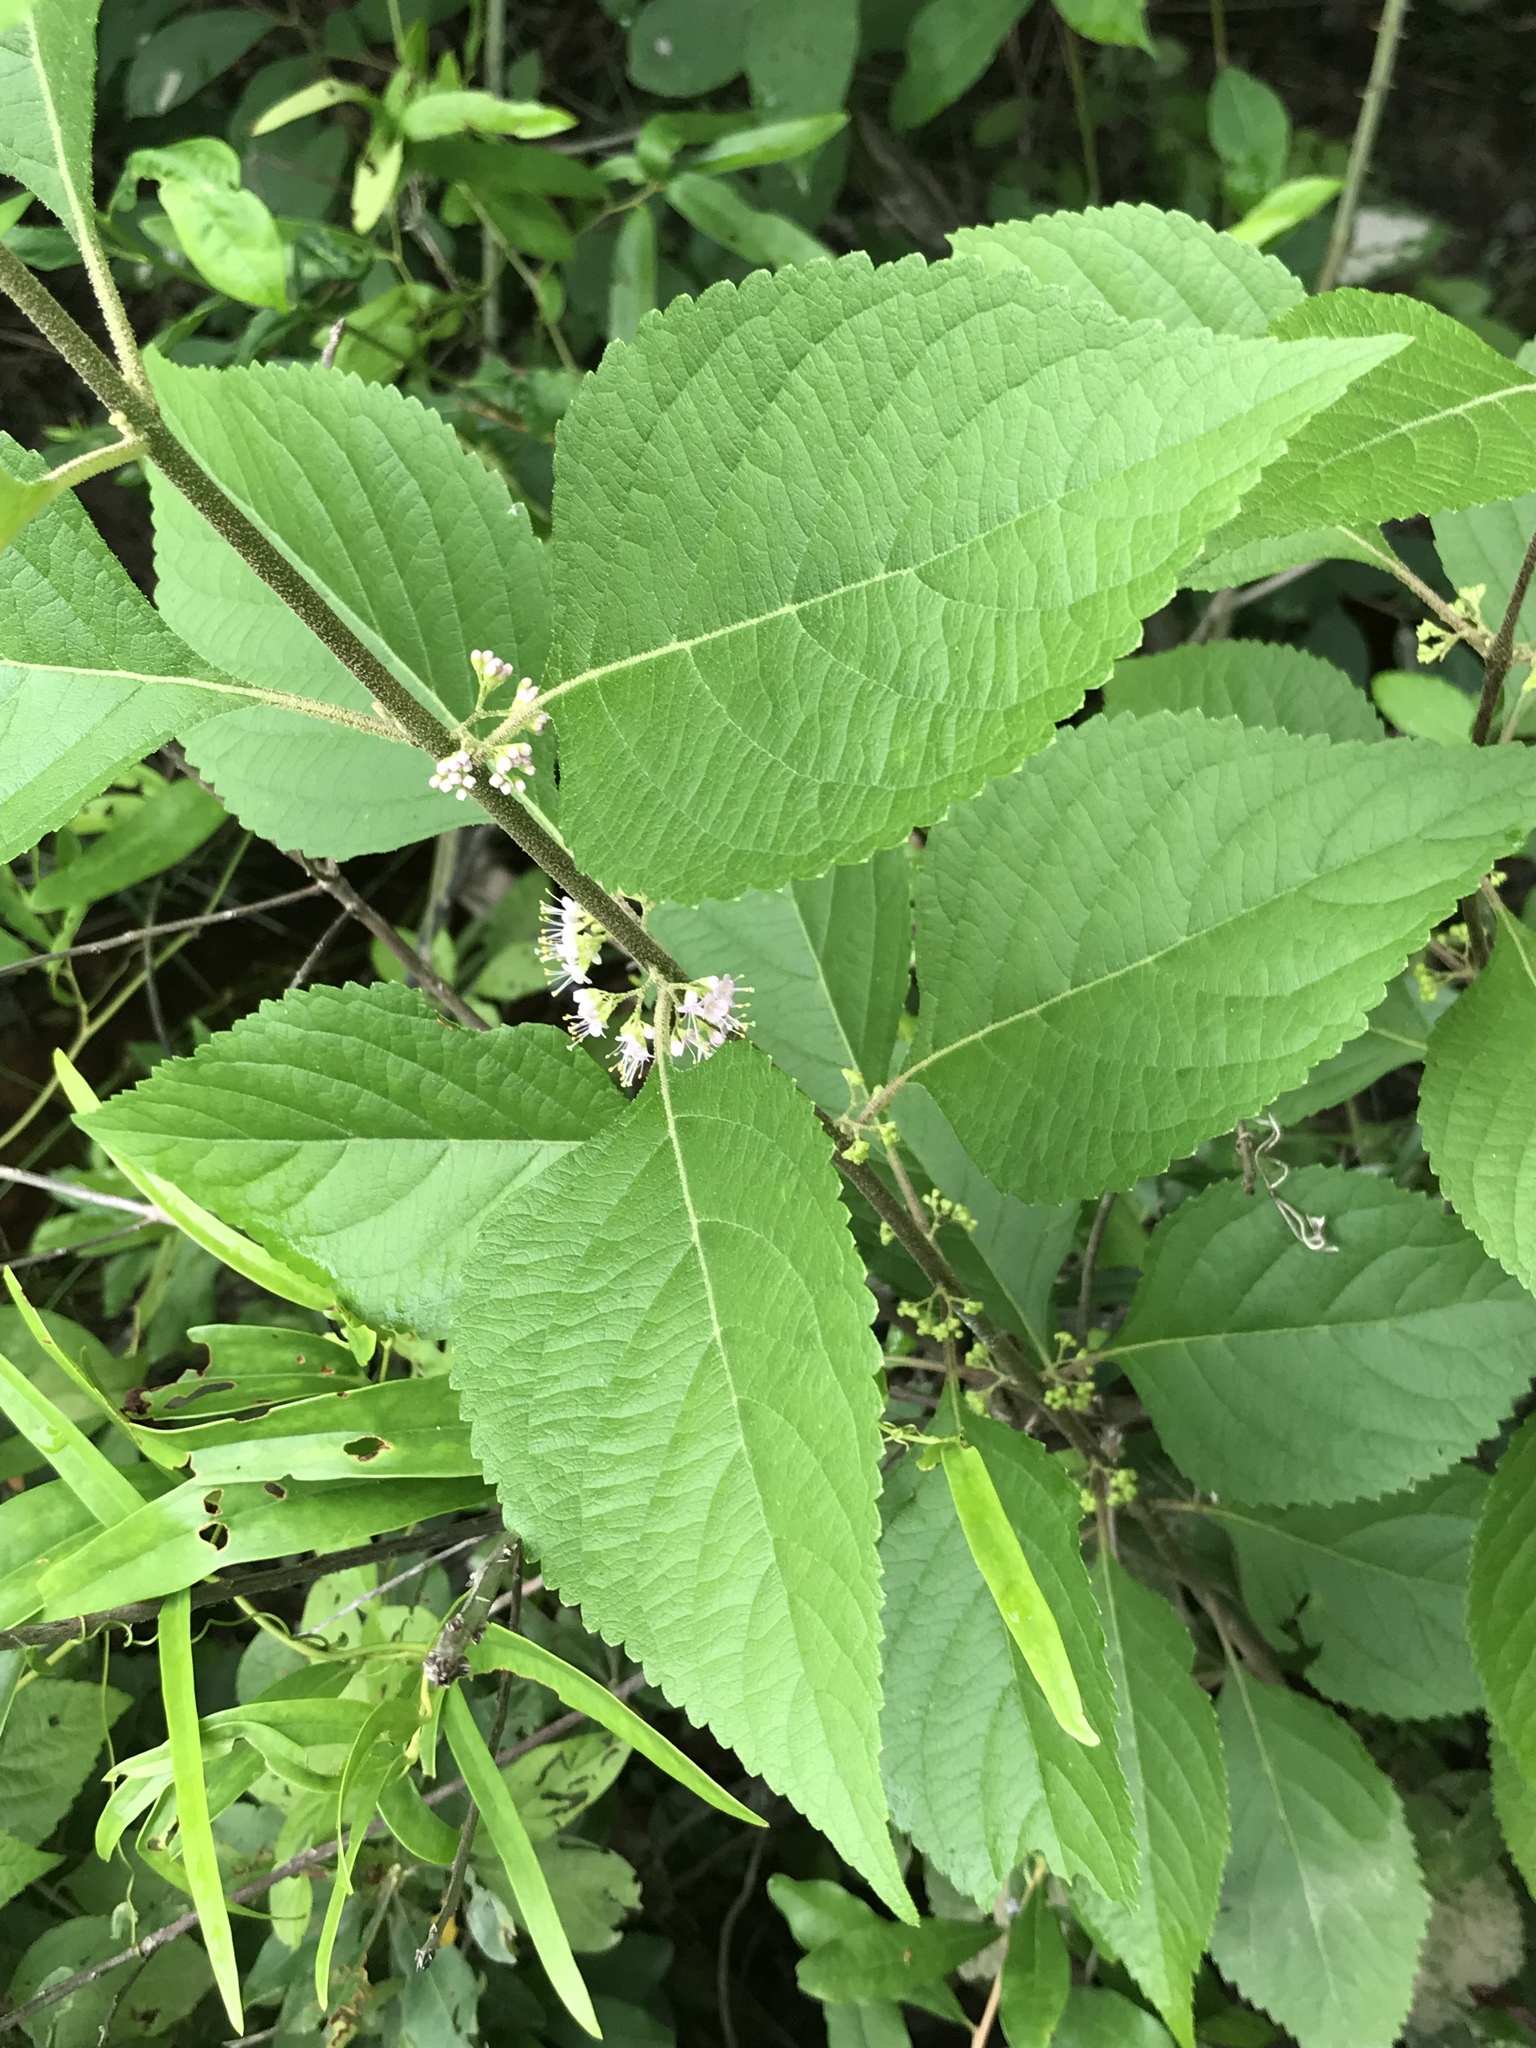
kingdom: Plantae
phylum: Tracheophyta
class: Magnoliopsida
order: Lamiales
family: Lamiaceae
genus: Callicarpa
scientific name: Callicarpa americana
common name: American beautyberry
